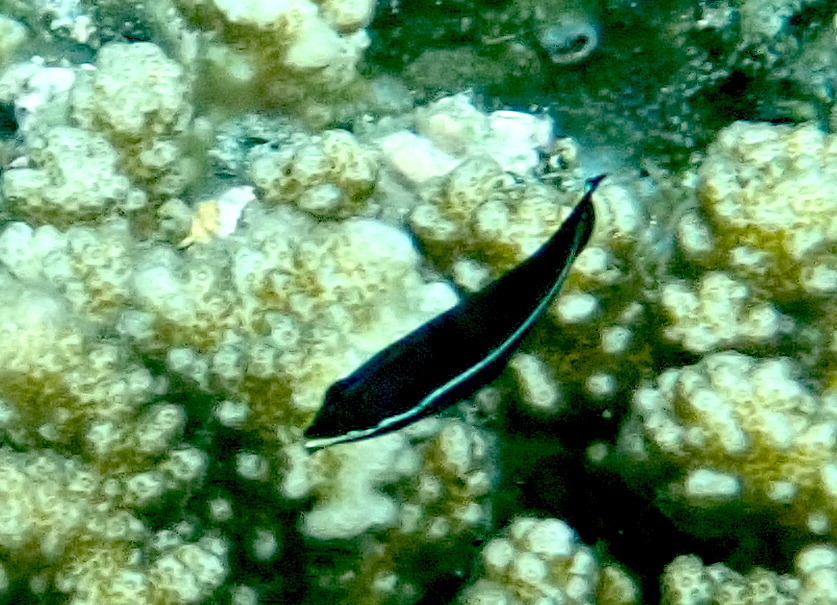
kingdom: Animalia
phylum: Chordata
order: Perciformes
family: Labridae
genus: Labrichthys
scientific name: Labrichthys unilineatus
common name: Onelined wrasse
